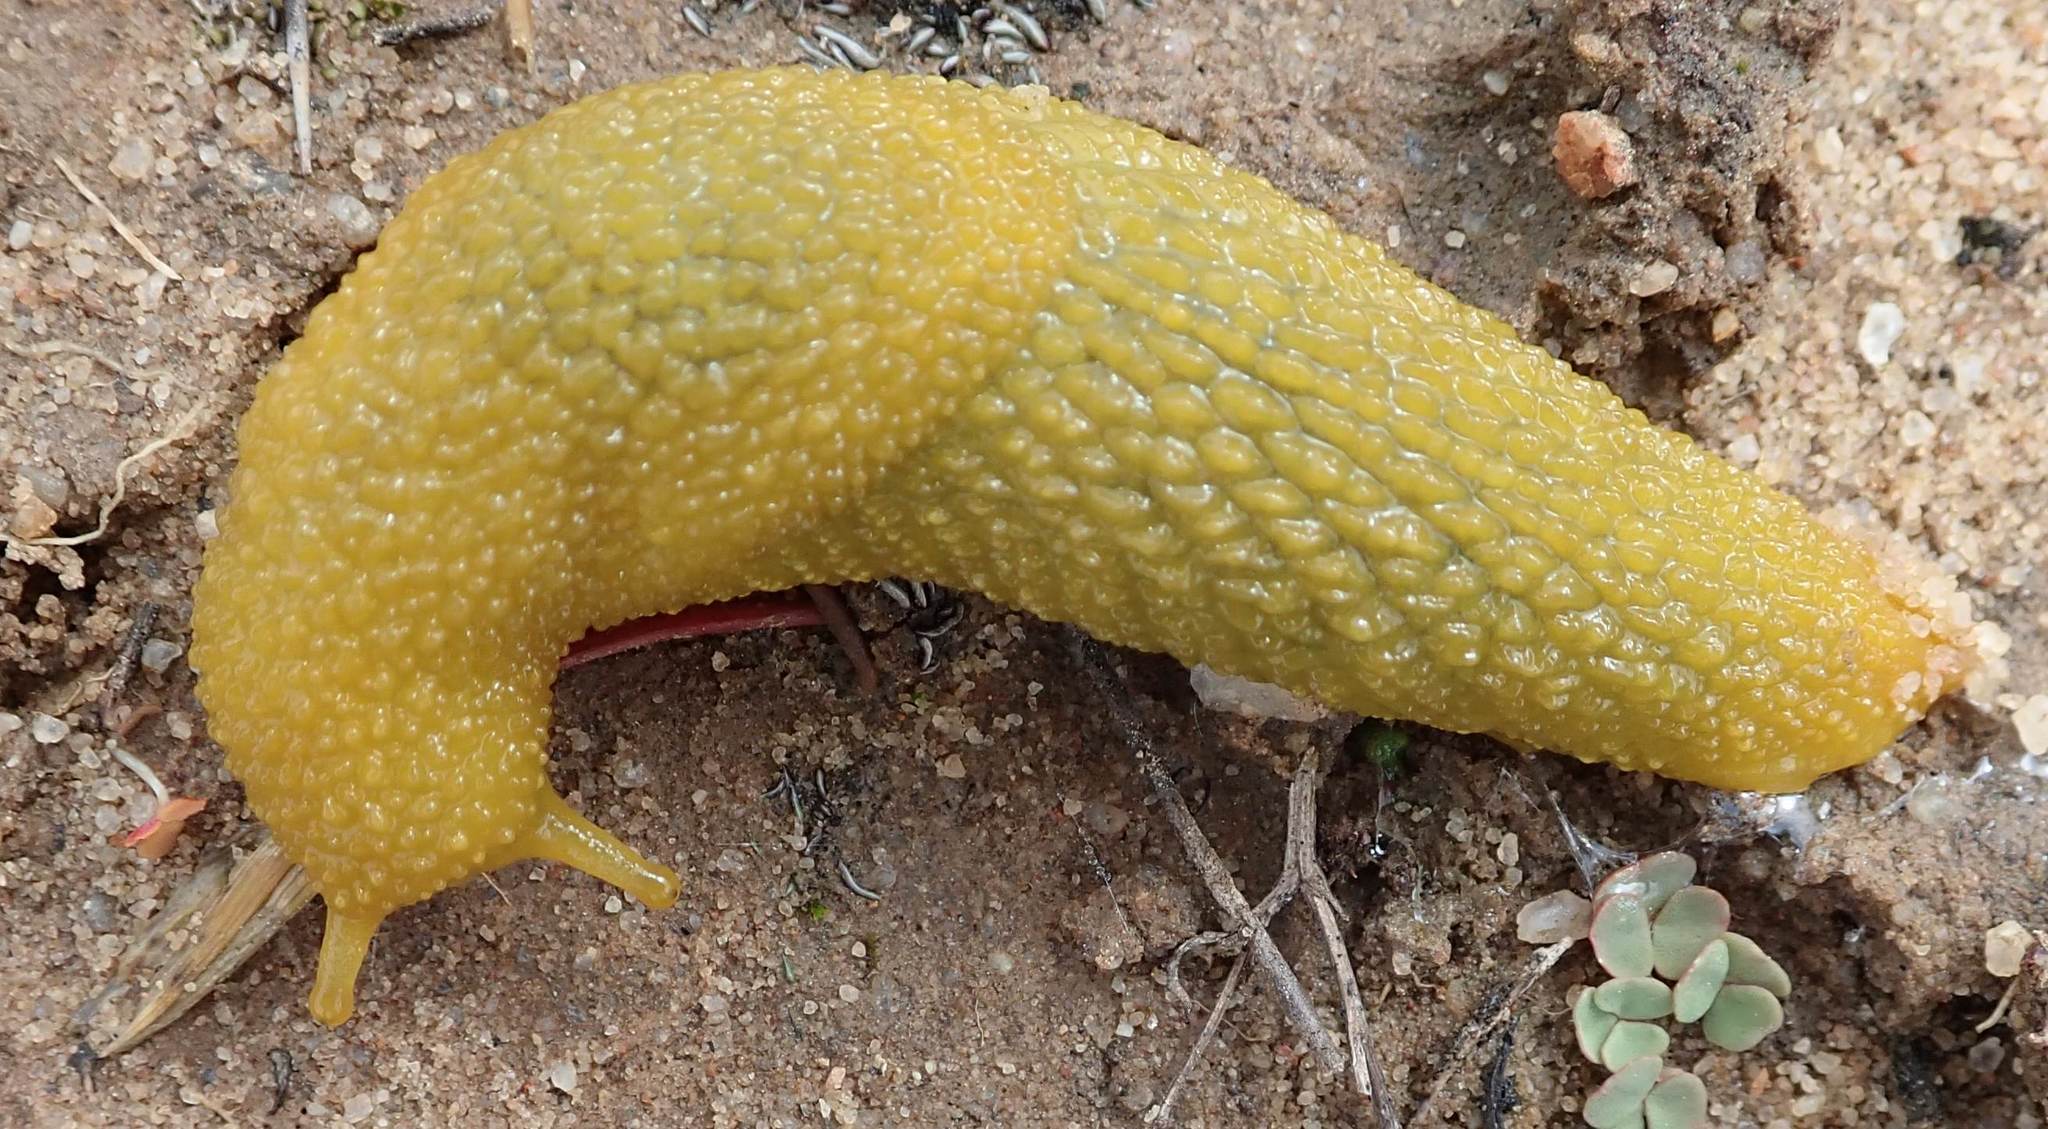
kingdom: Animalia
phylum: Mollusca
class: Gastropoda
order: Stylommatophora
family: Oopeltidae
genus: Oopelta
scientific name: Oopelta granulosa
